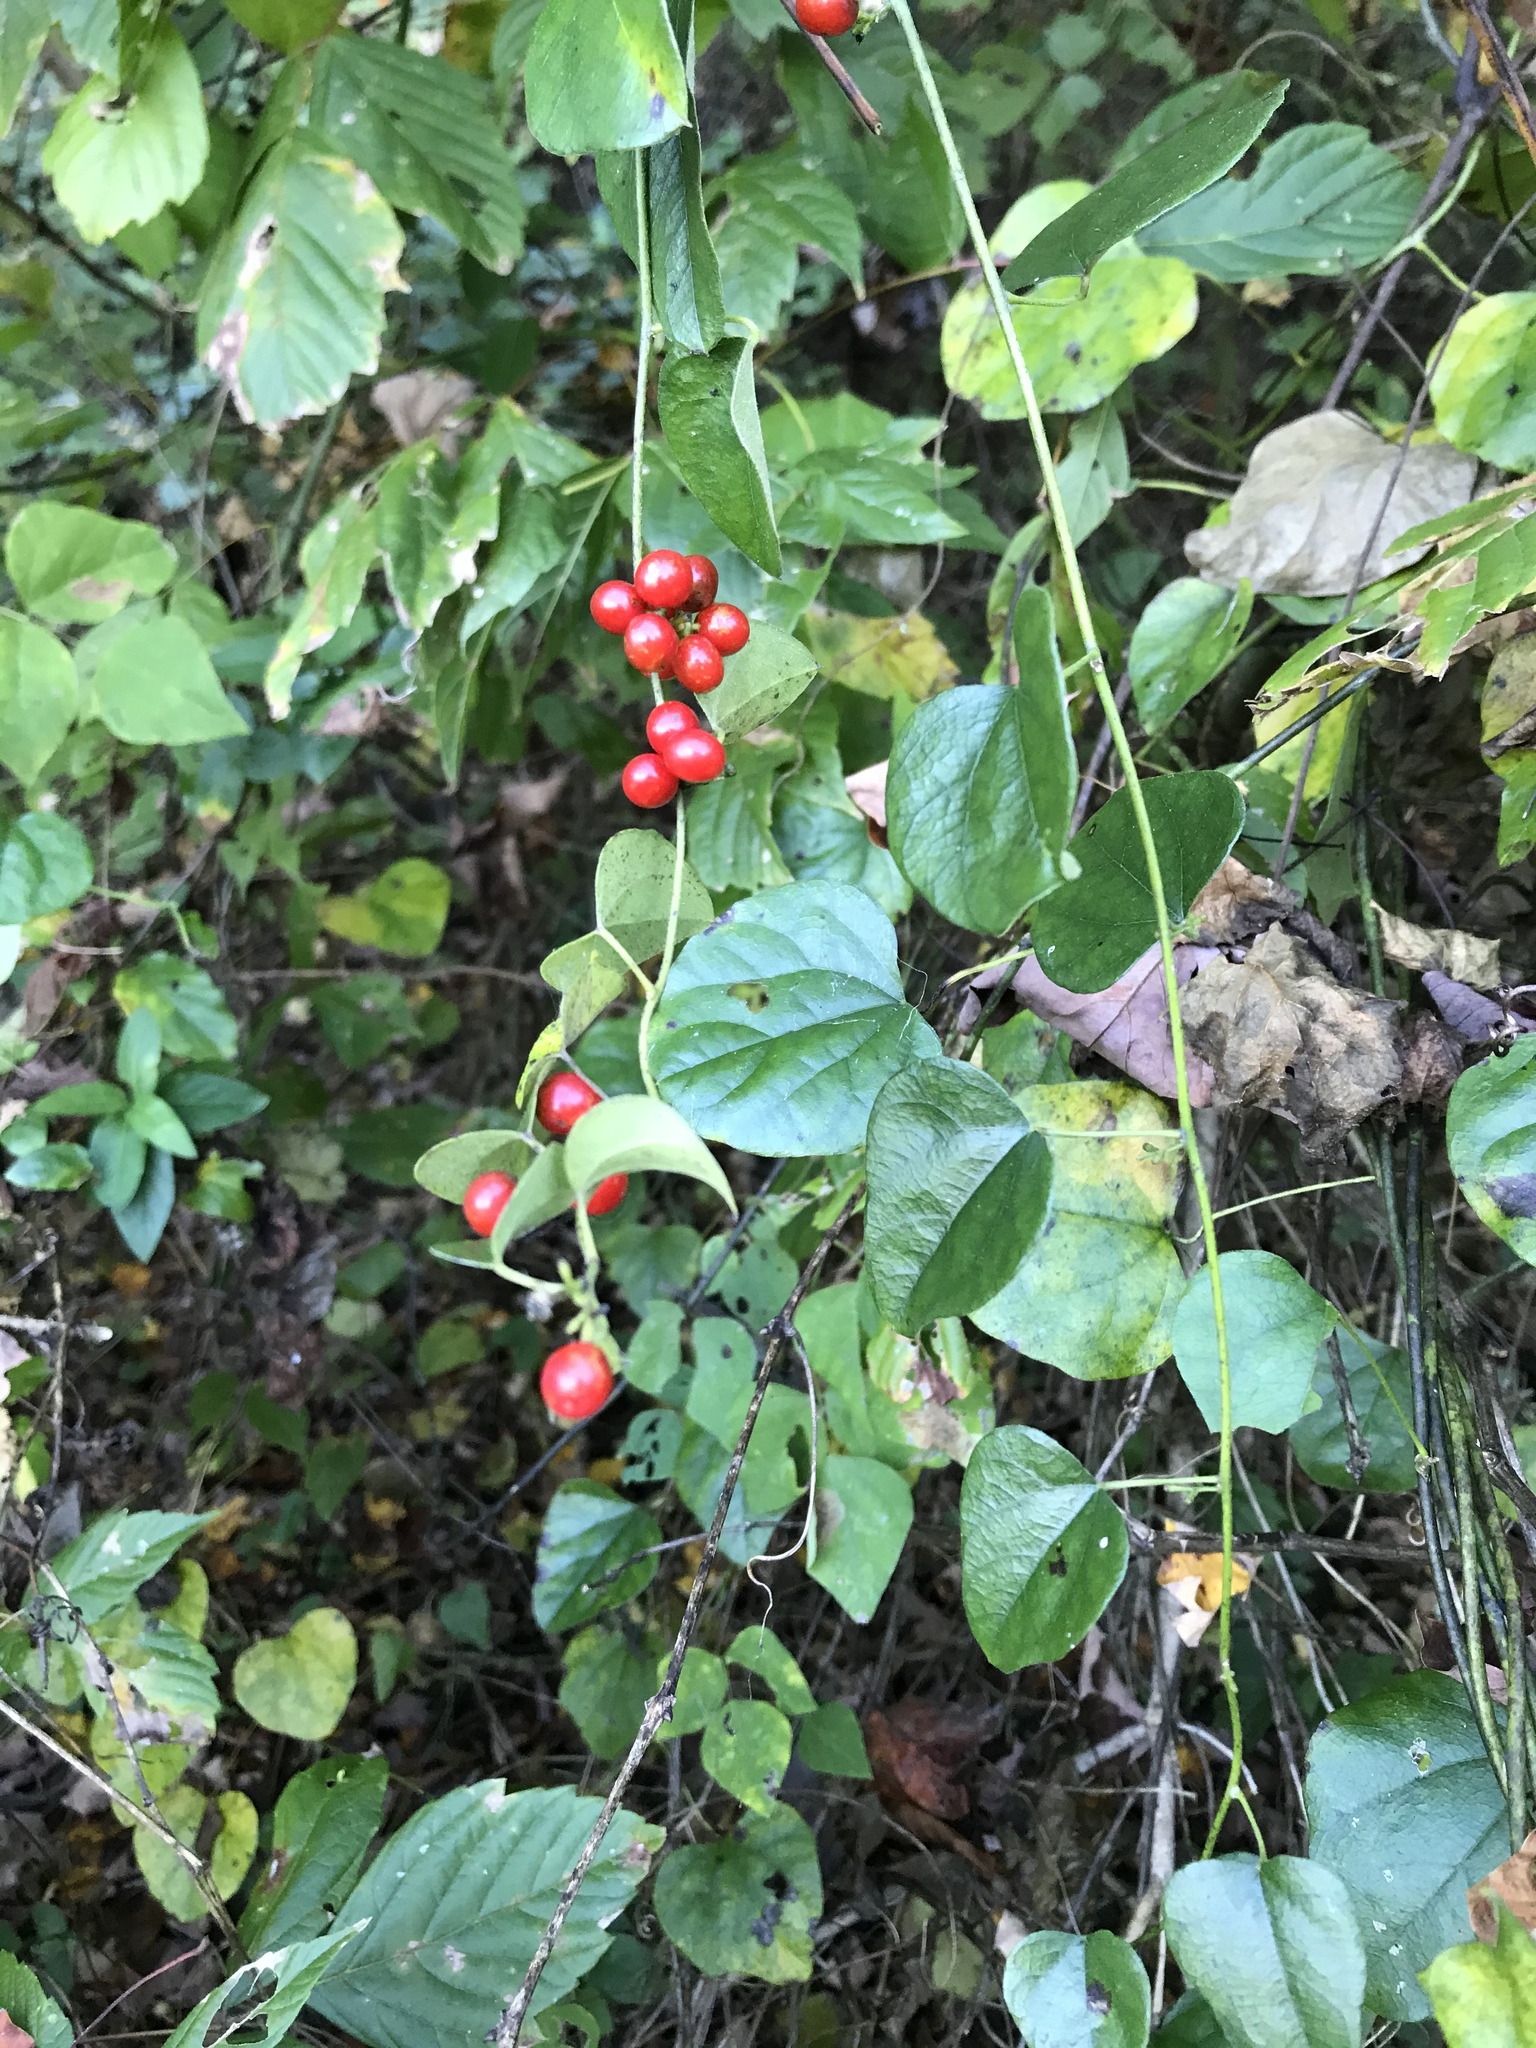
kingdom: Plantae
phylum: Tracheophyta
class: Magnoliopsida
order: Ranunculales
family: Menispermaceae
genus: Cocculus
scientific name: Cocculus carolinus
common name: Carolina moonseed
